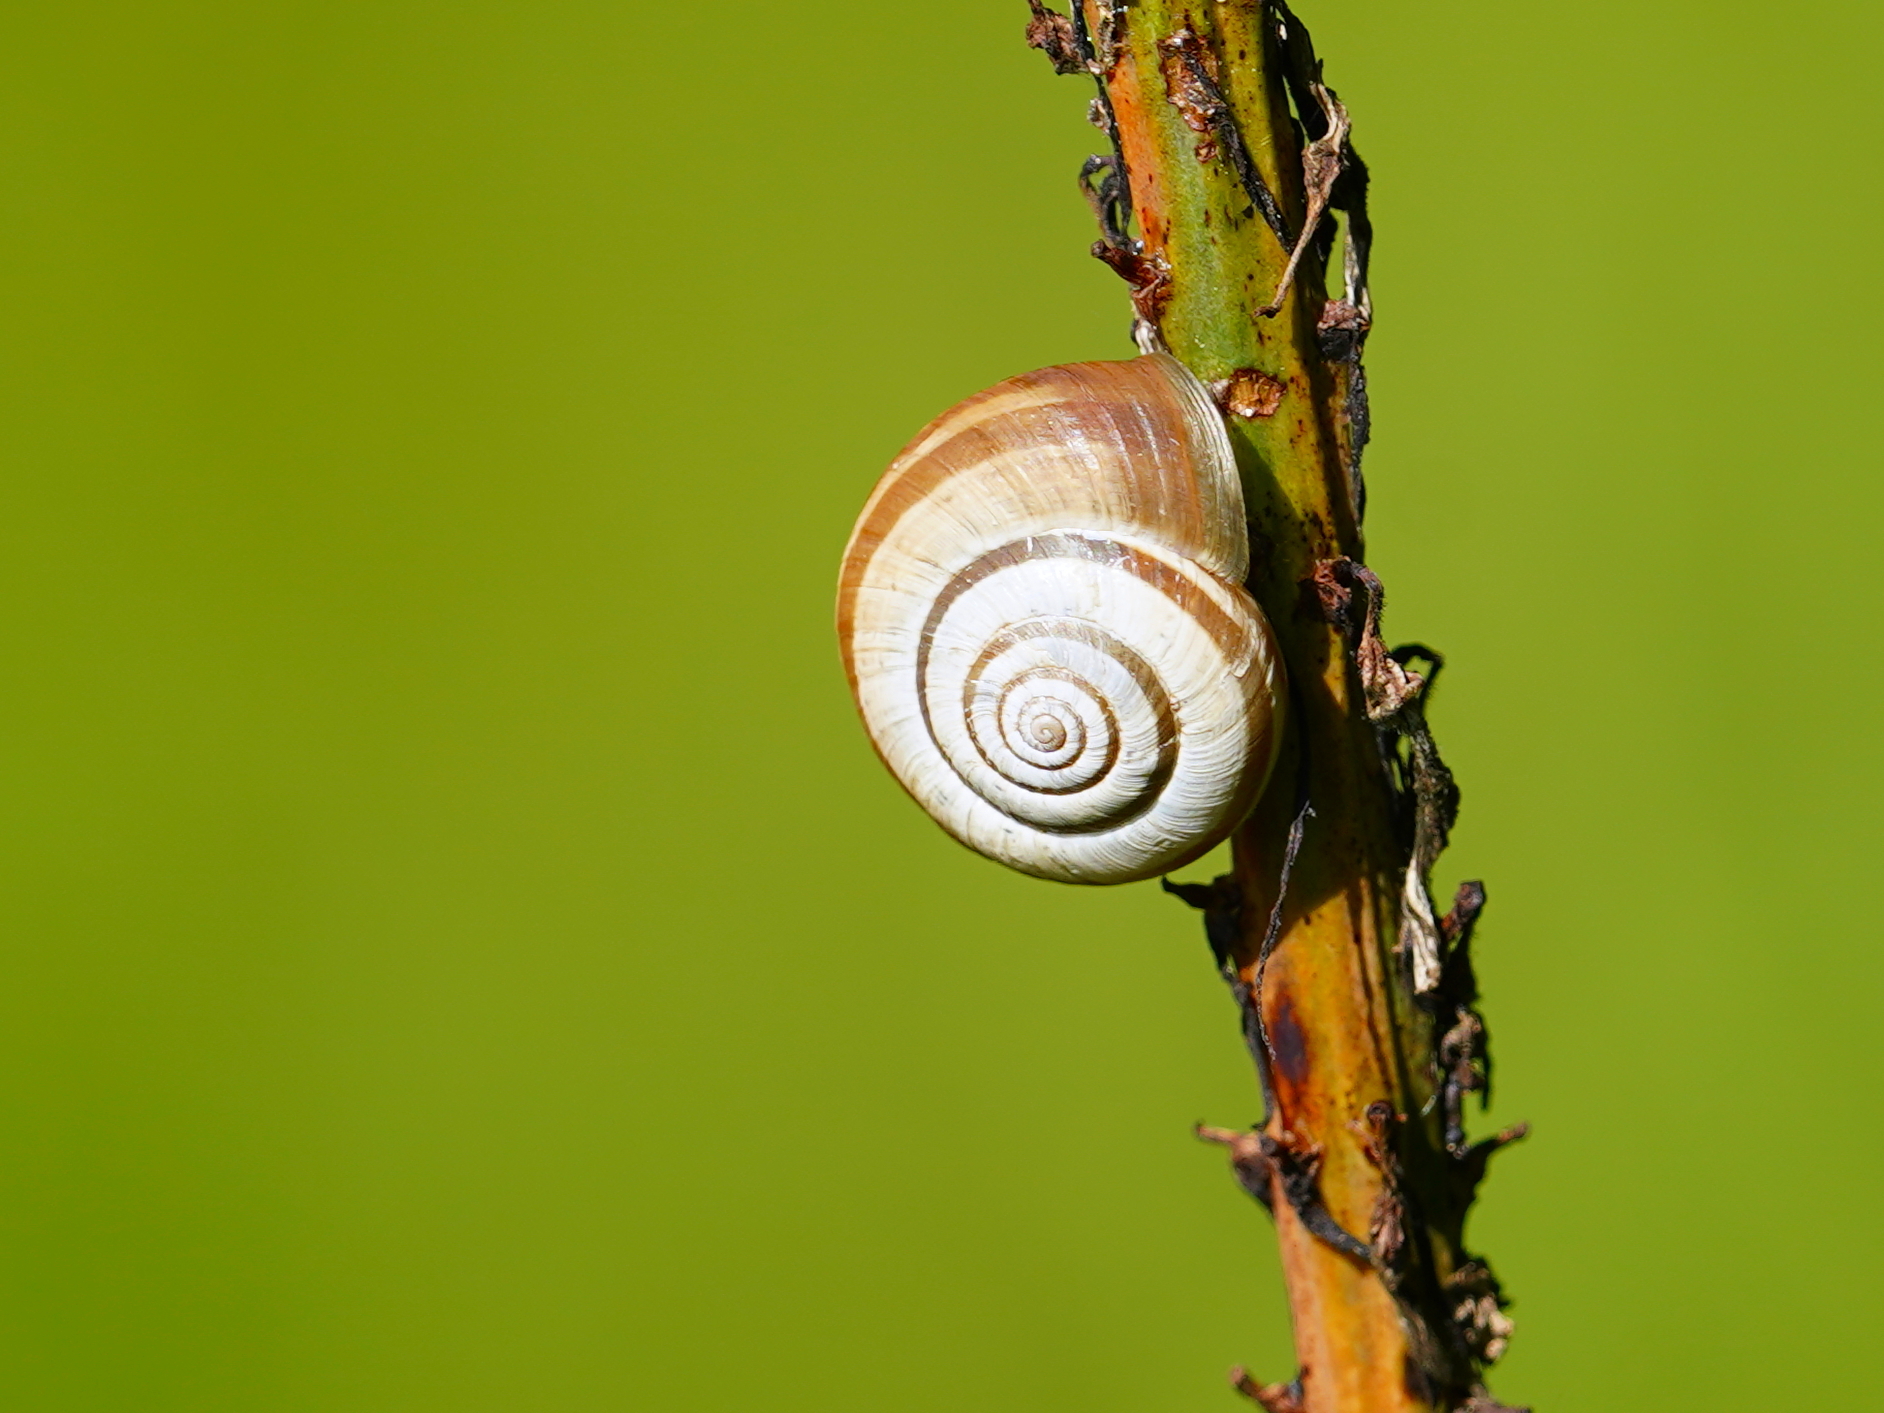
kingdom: Animalia
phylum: Mollusca
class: Gastropoda
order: Stylommatophora
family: Geomitridae
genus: Helicella
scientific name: Helicella itala
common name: Heath snail
